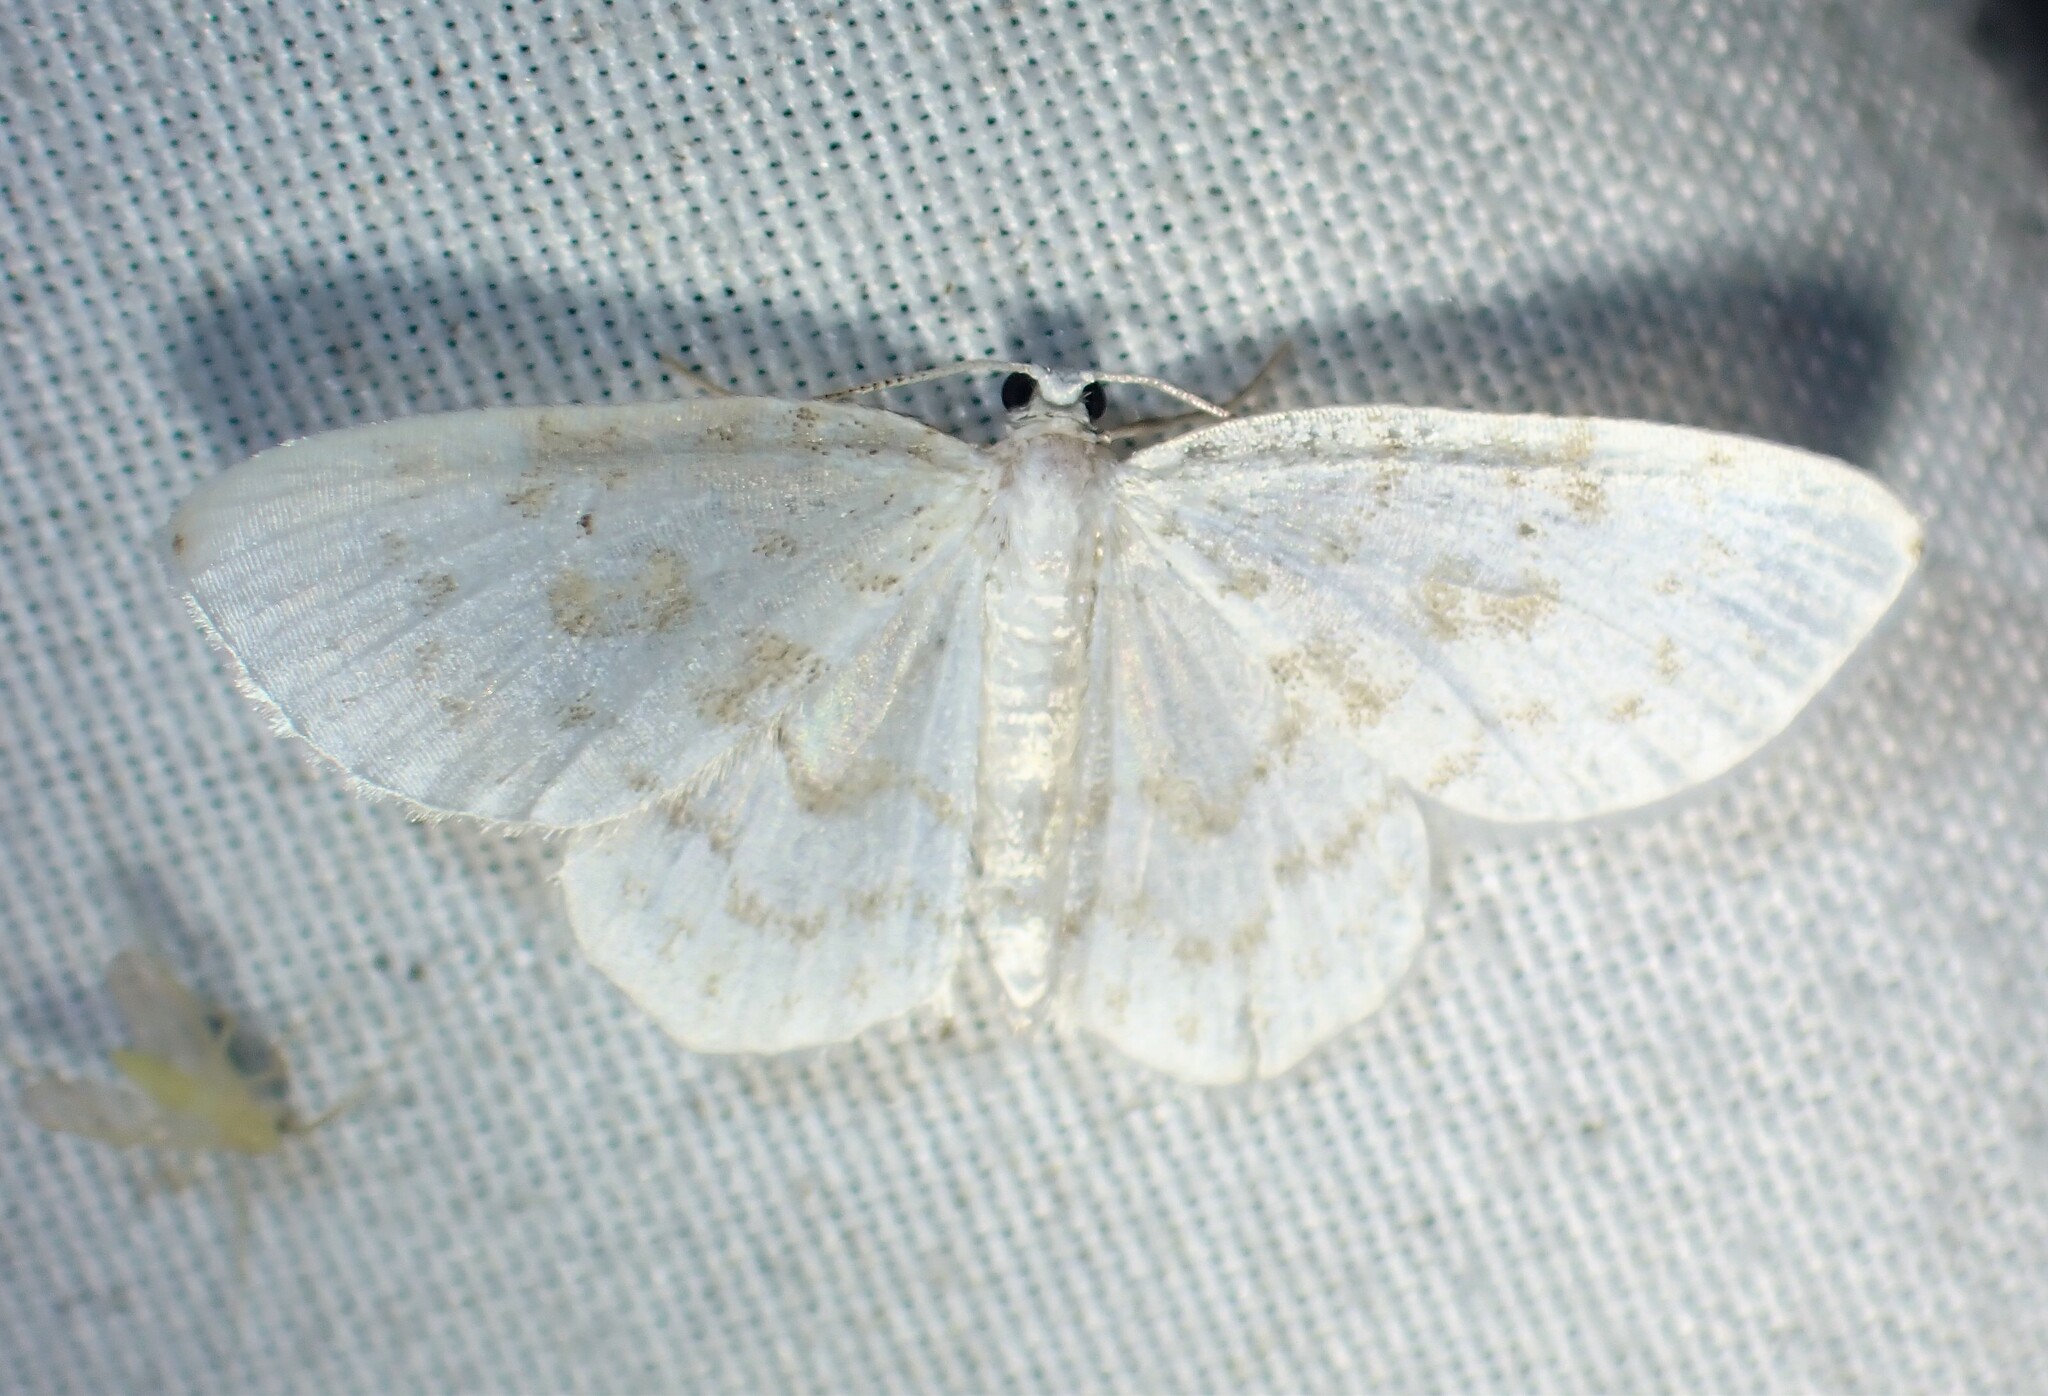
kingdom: Animalia
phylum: Arthropoda
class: Insecta
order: Lepidoptera
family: Geometridae
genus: Hydrelia
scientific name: Hydrelia albifera
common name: Fragile white carpet
